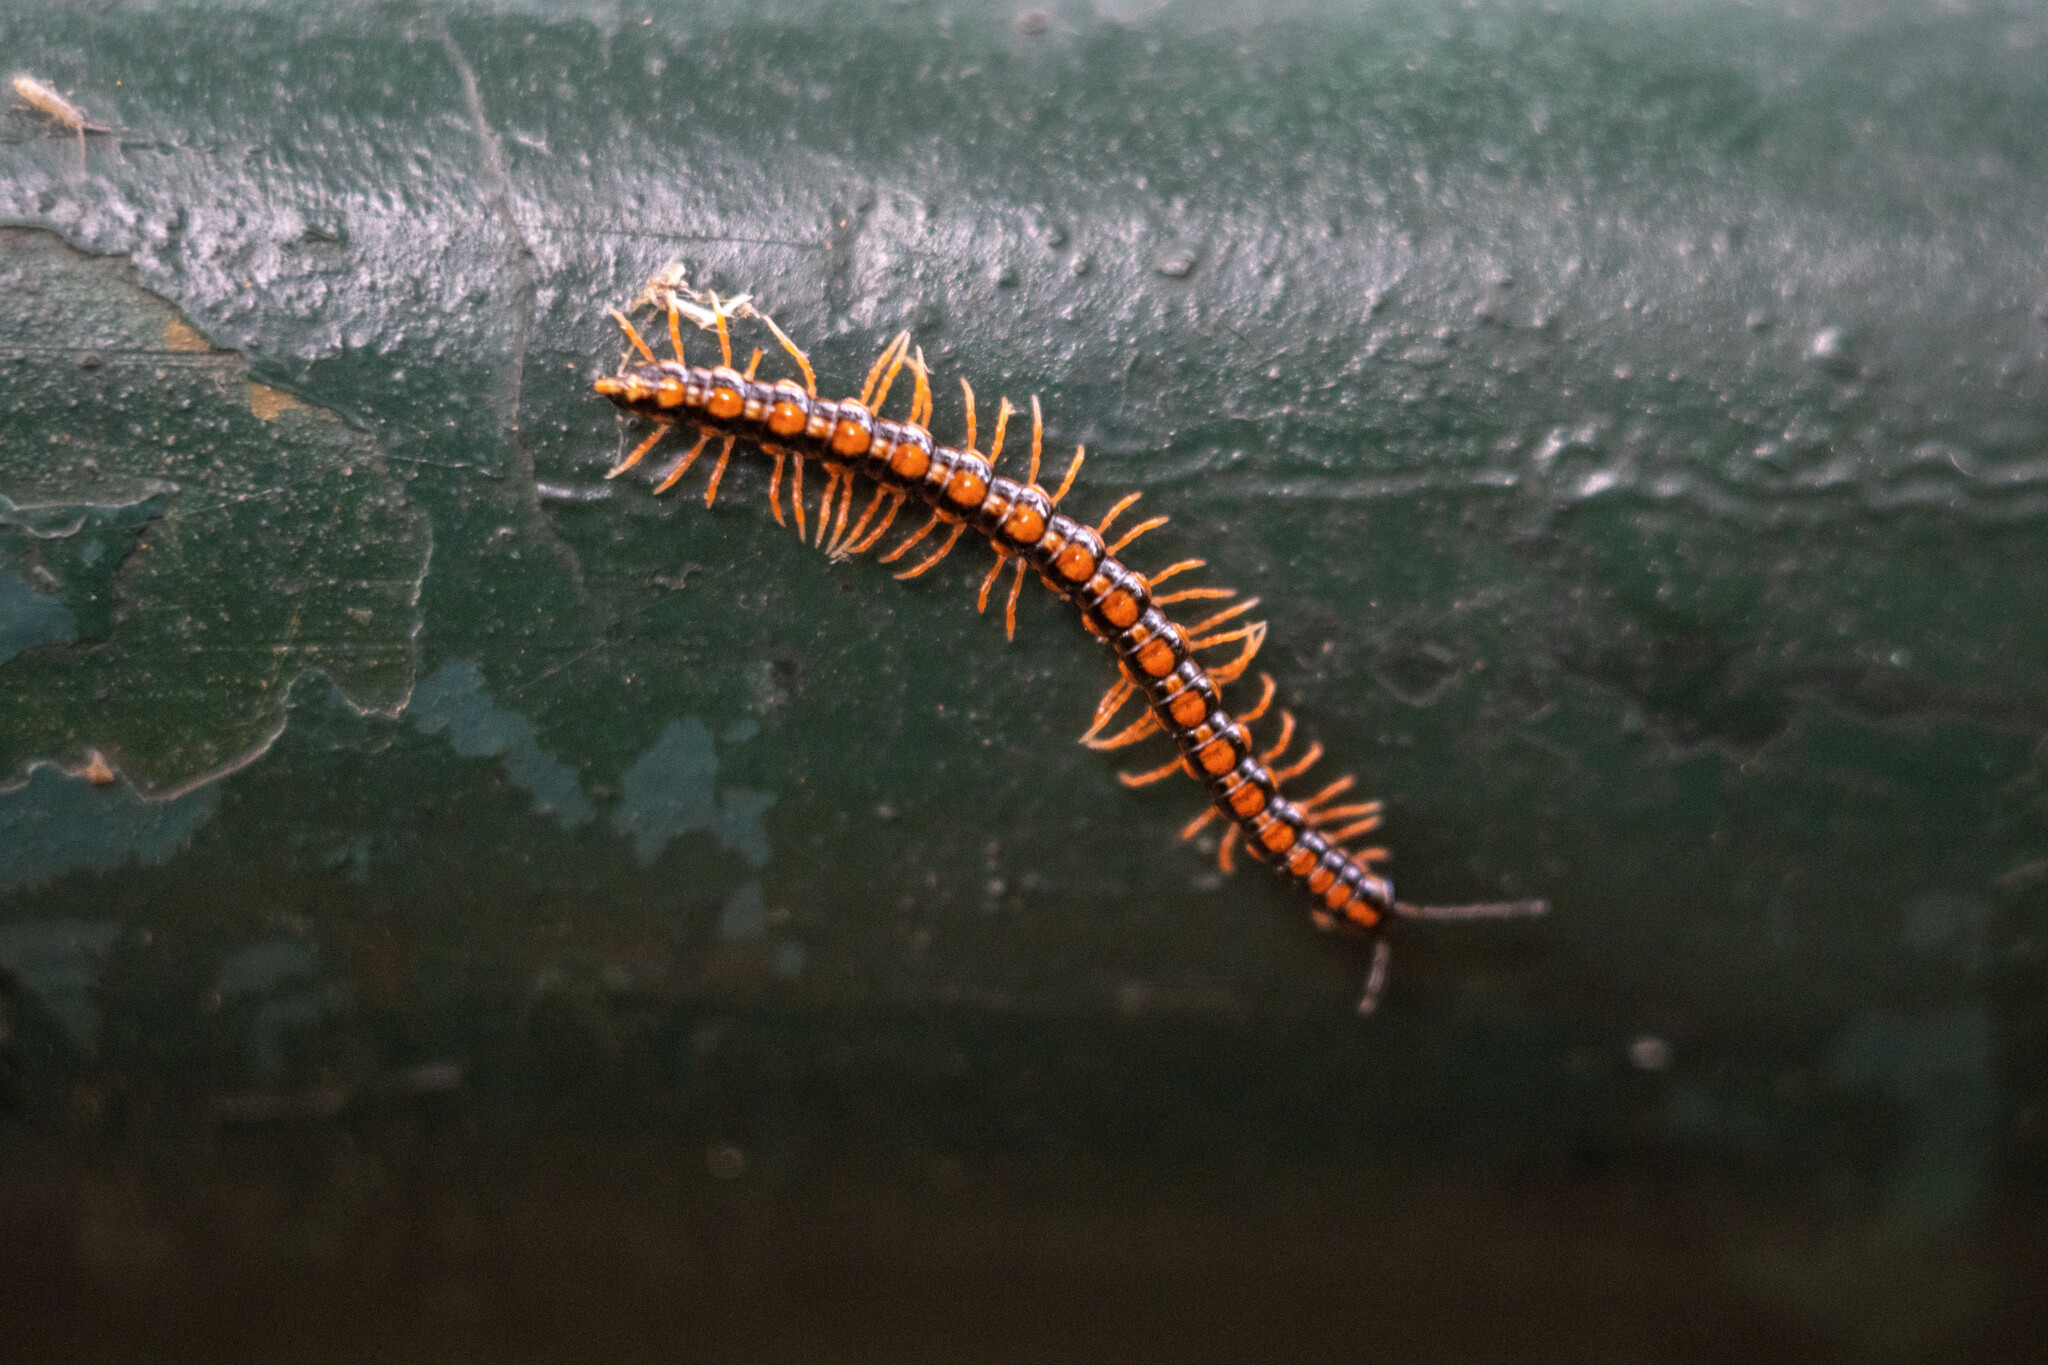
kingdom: Animalia
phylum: Arthropoda
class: Diplopoda
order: Polydesmida
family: Paradoxosomatidae
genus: Helicorthomorpha
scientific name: Helicorthomorpha holstii
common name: Millipede
